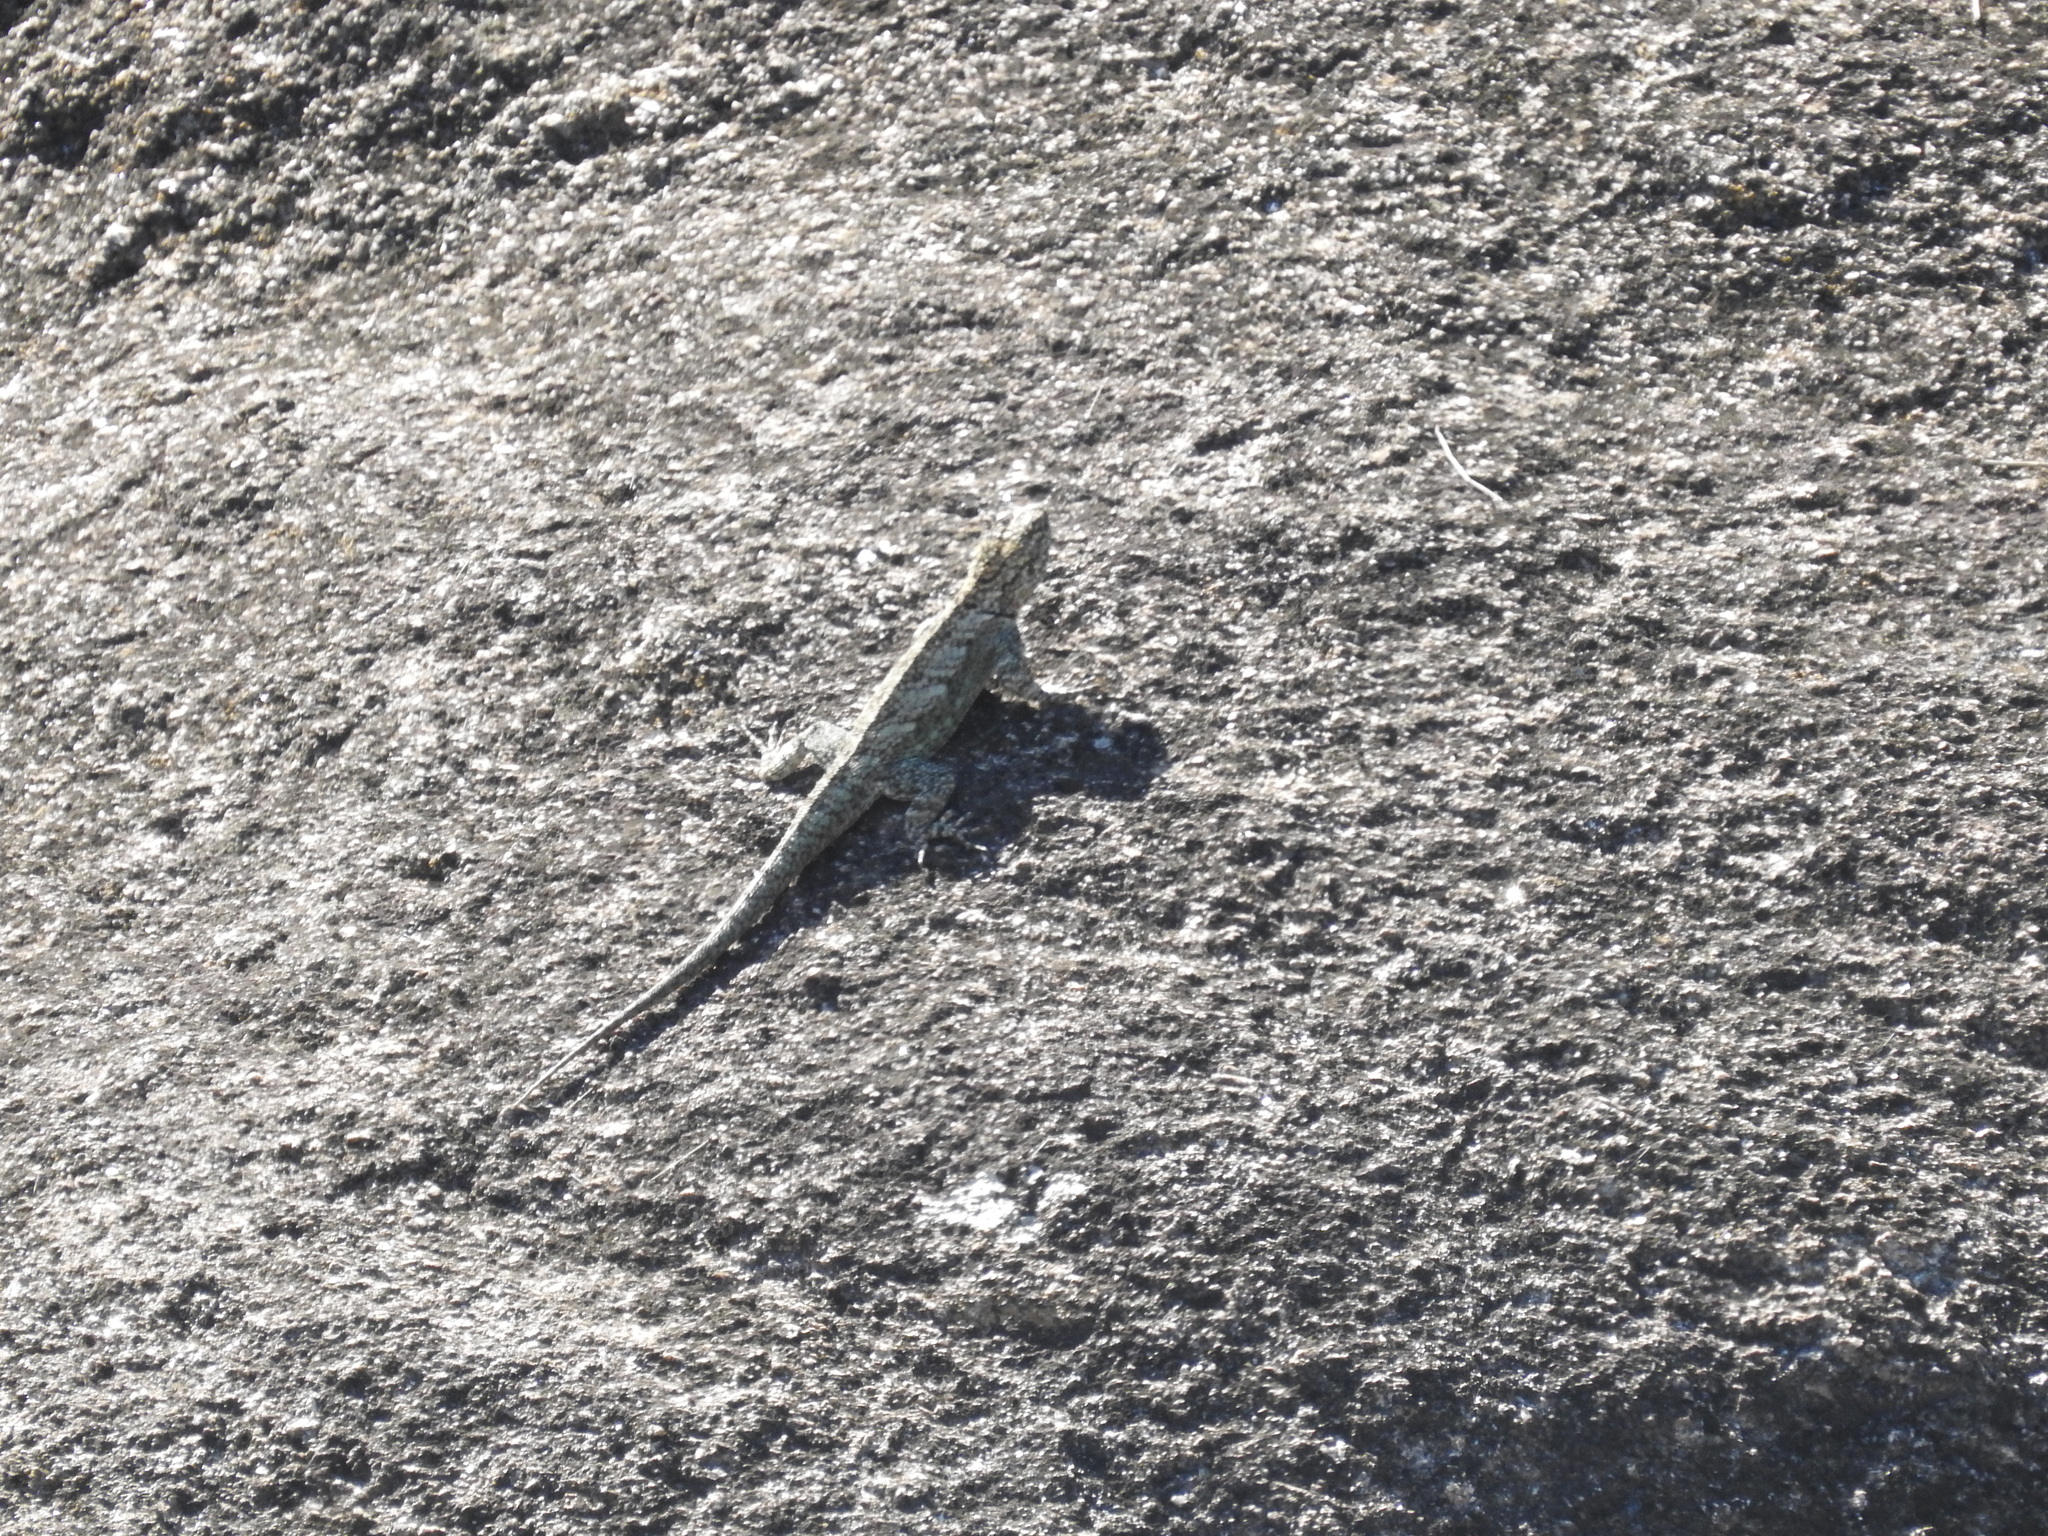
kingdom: Animalia
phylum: Chordata
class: Squamata
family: Tropiduridae
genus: Tropidurus
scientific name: Tropidurus spinulosus
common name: Spiny lava lizard
